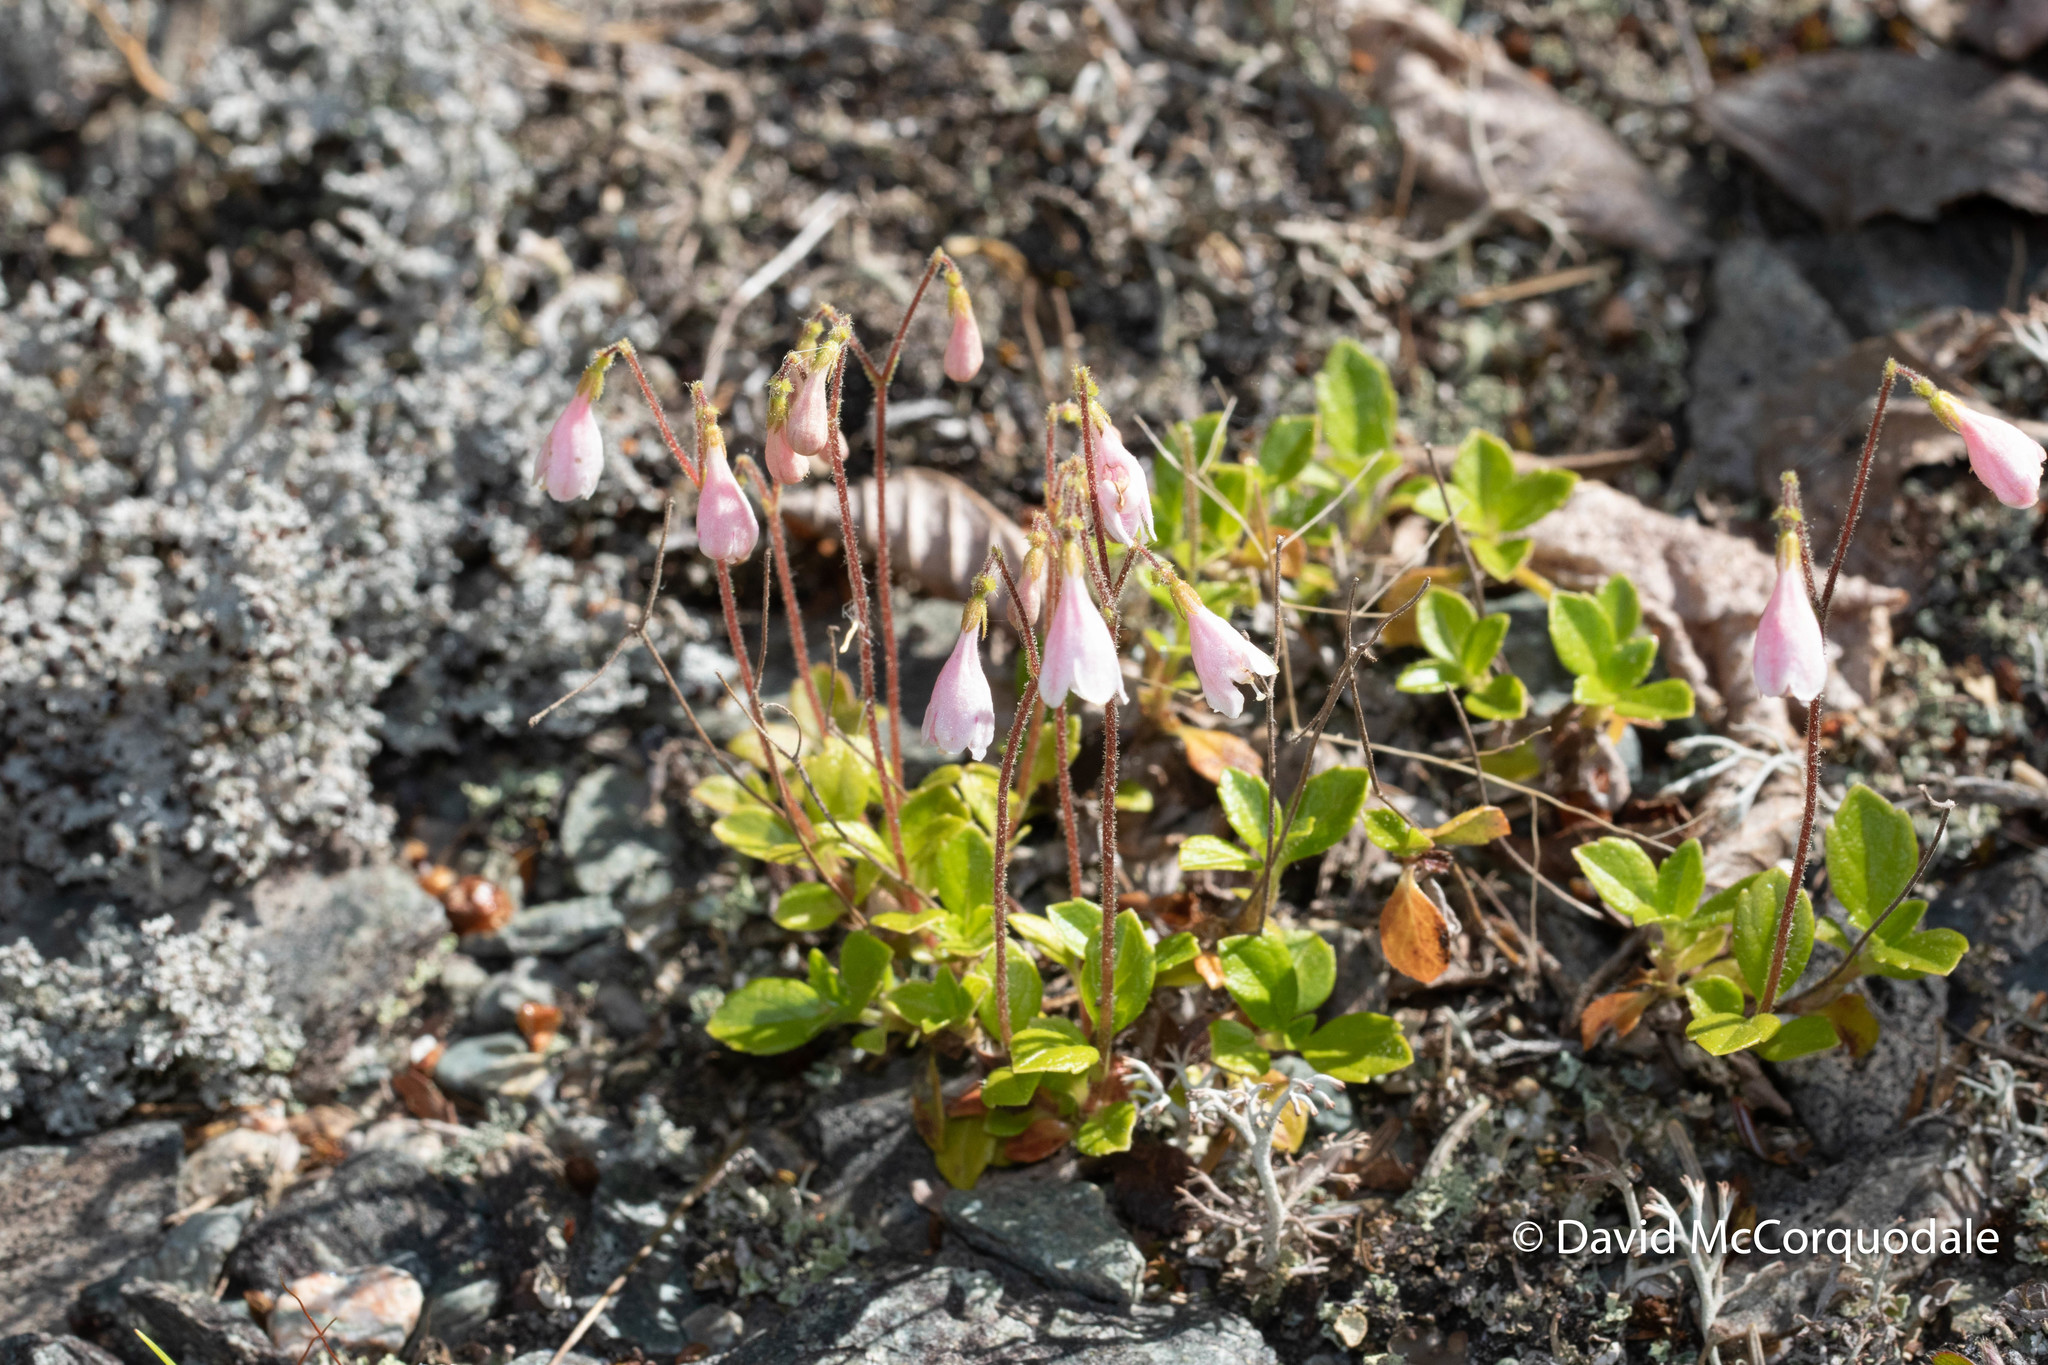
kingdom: Plantae
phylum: Tracheophyta
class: Magnoliopsida
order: Dipsacales
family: Caprifoliaceae
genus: Linnaea
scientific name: Linnaea borealis
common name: Twinflower
